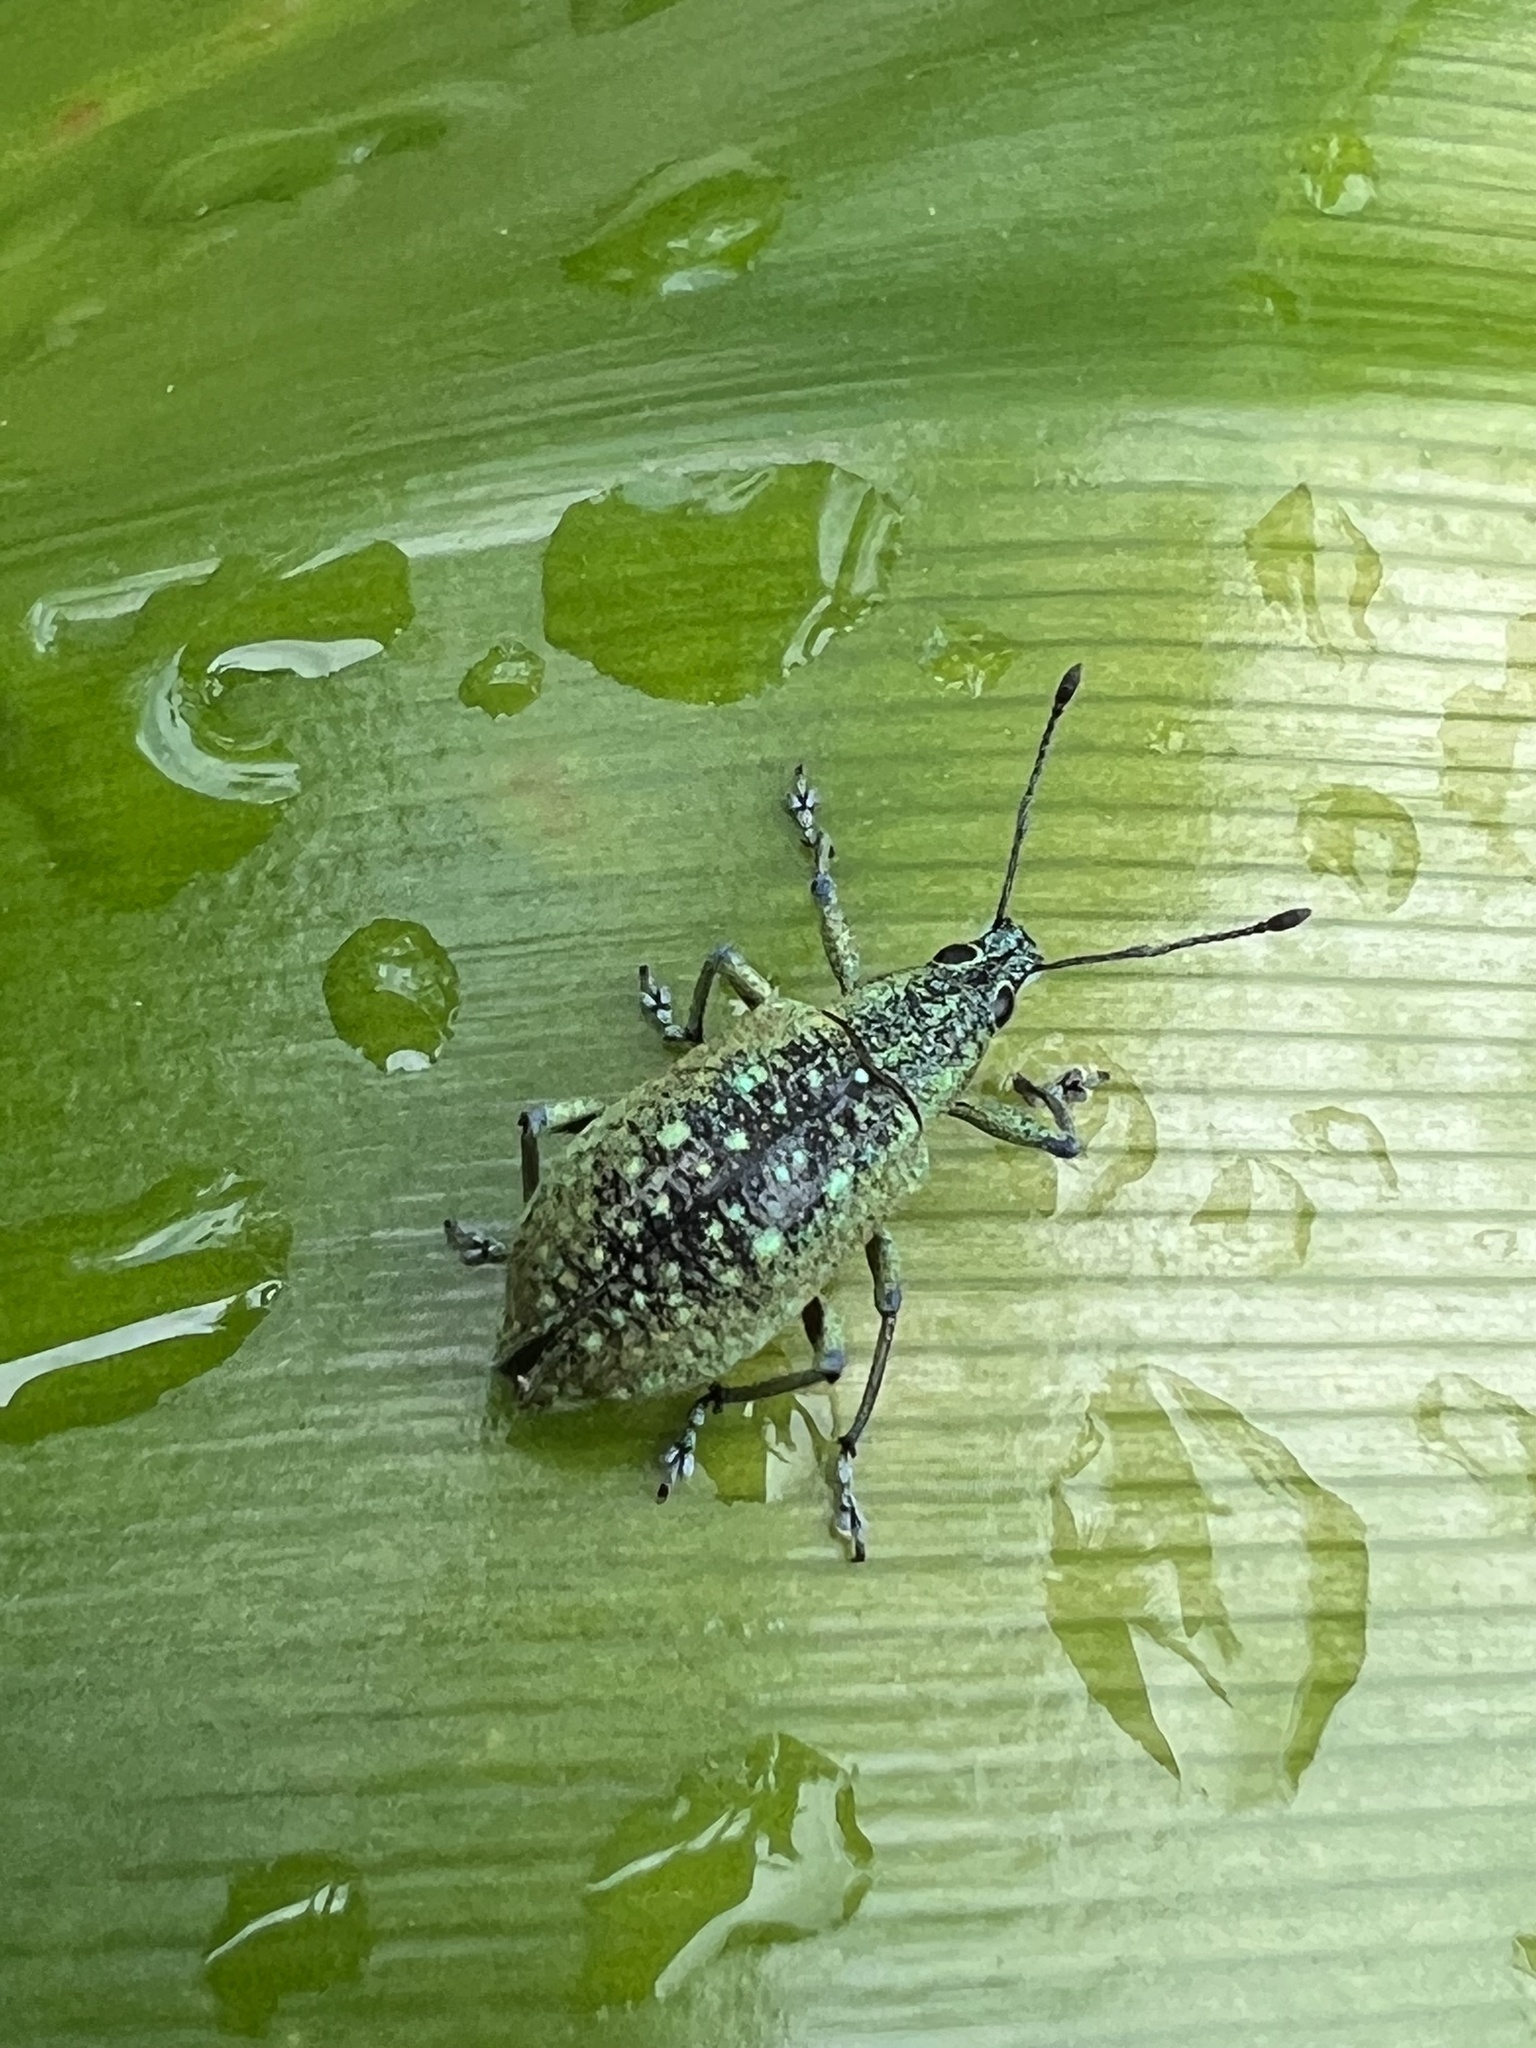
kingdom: Animalia
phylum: Arthropoda
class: Insecta
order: Coleoptera
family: Curculionidae
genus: Exophthalmus
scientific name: Exophthalmus jekelianus
